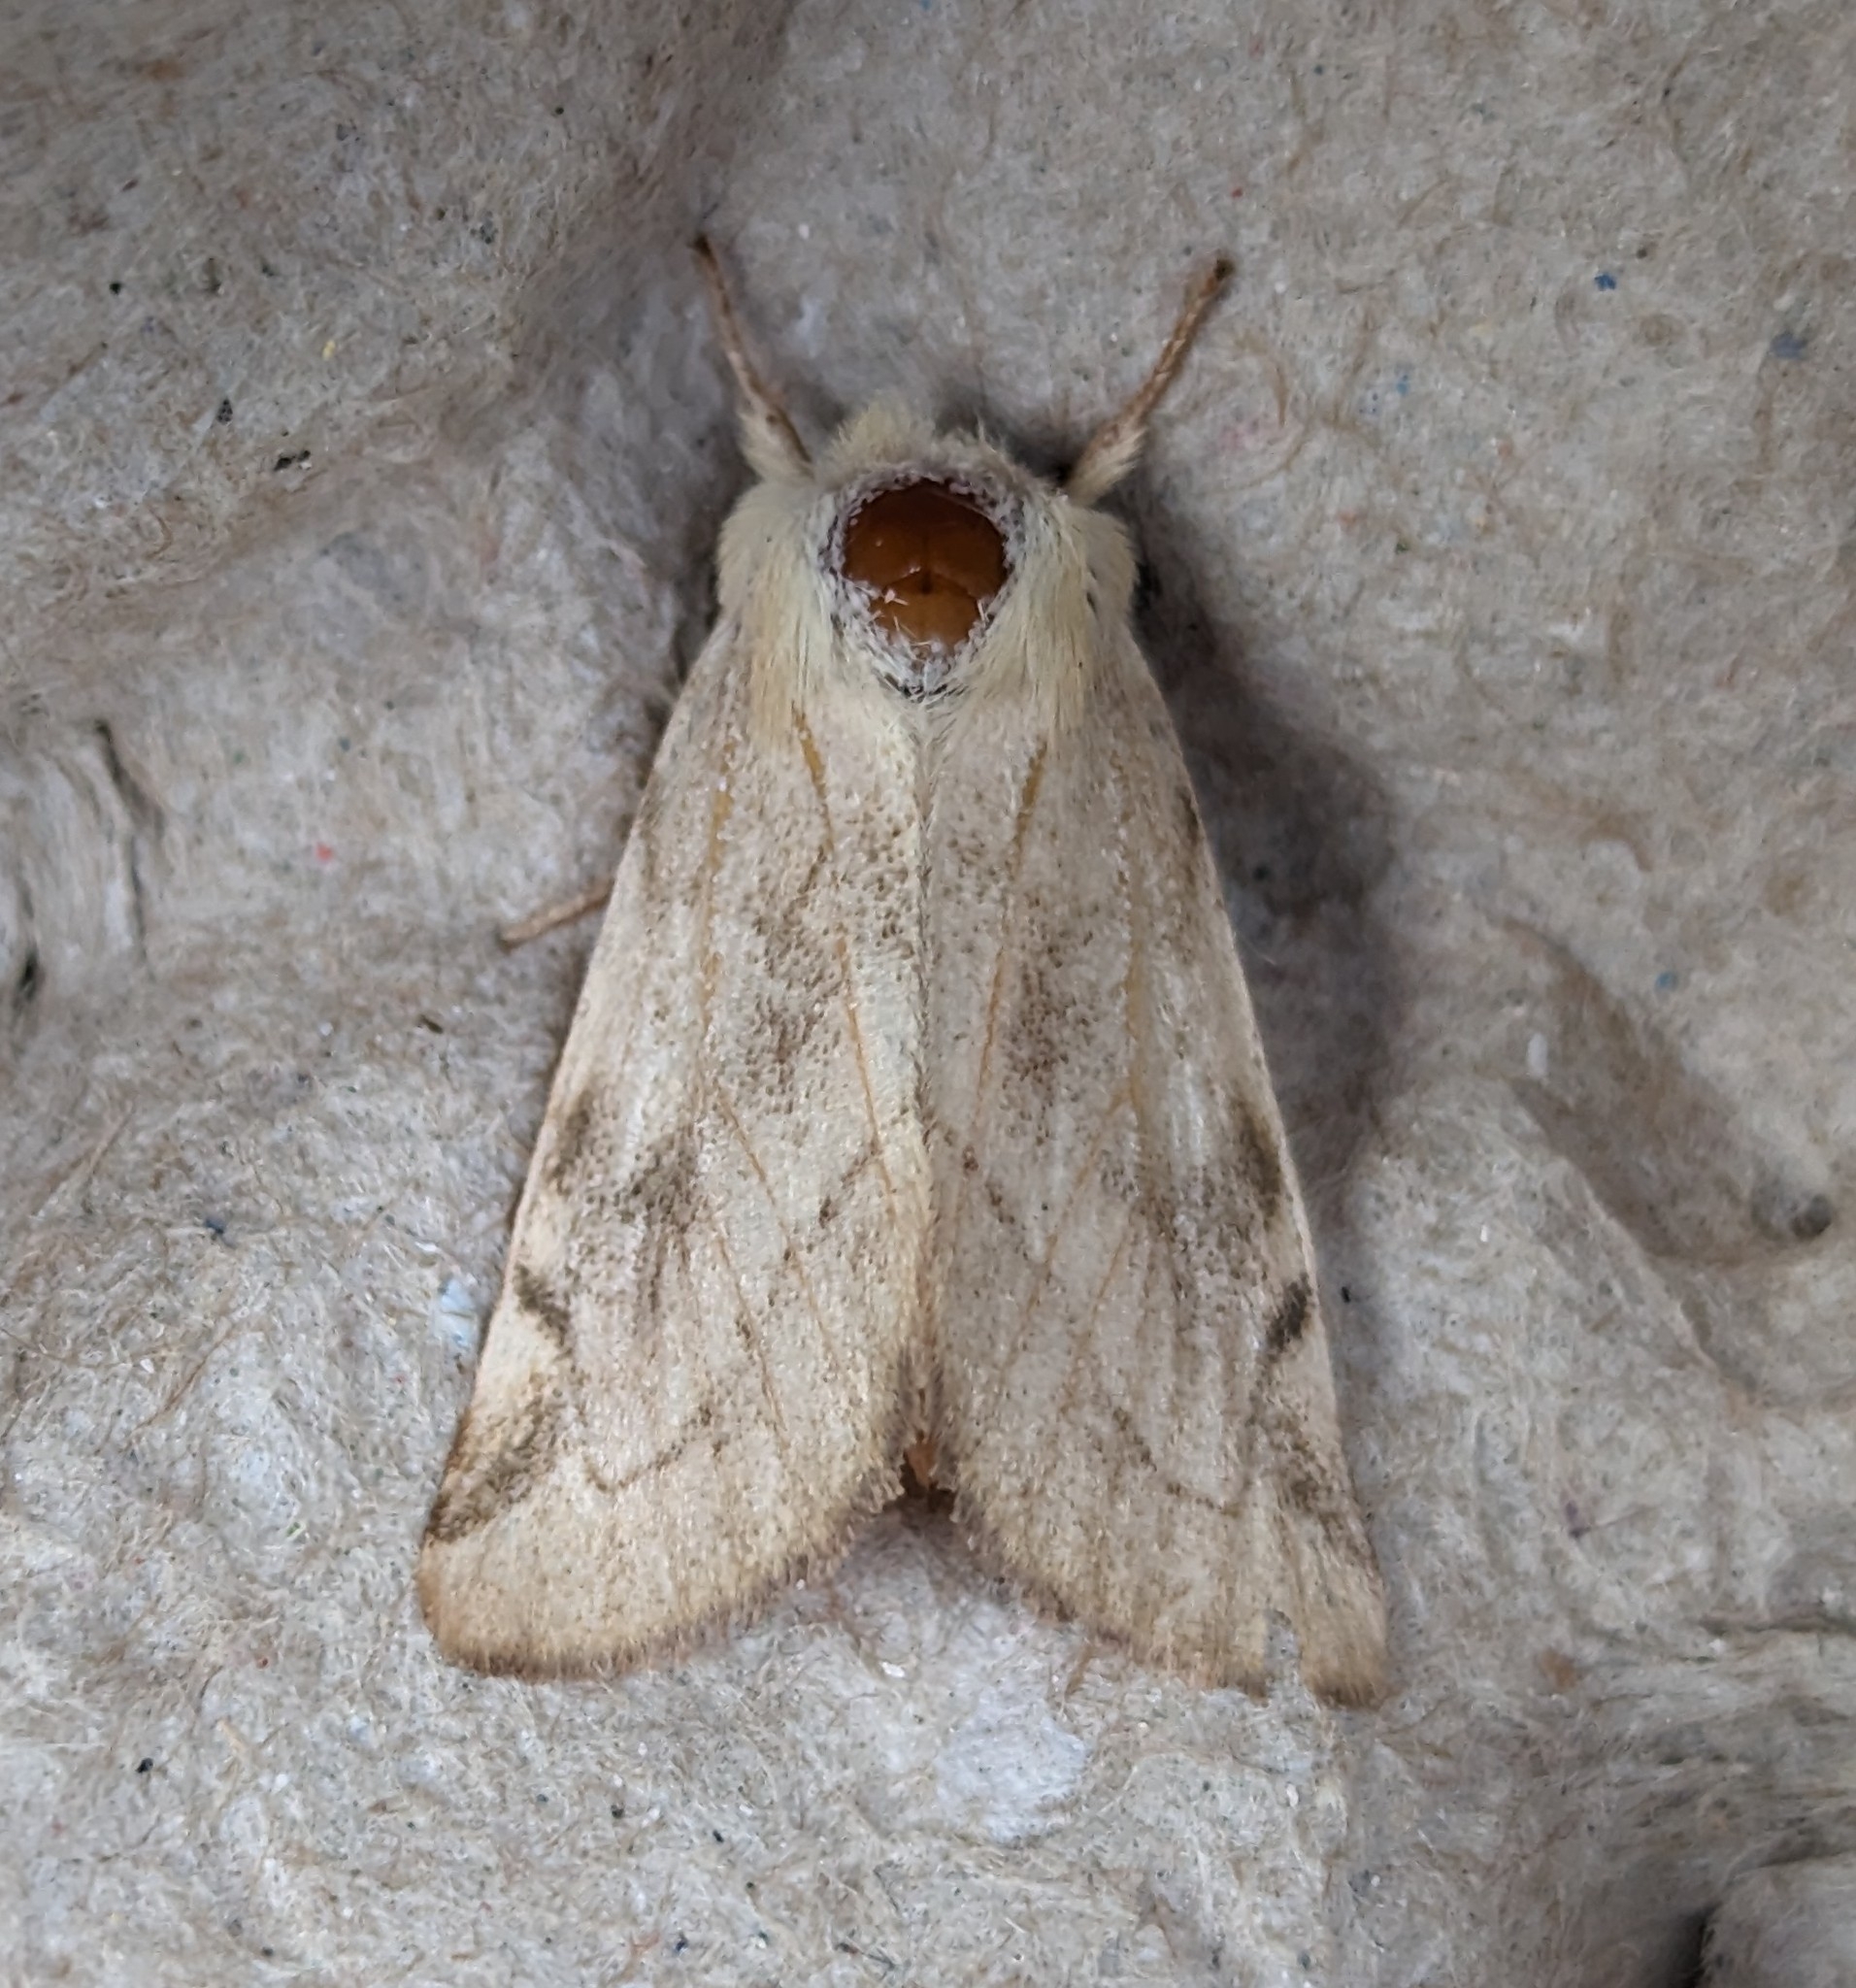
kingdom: Animalia
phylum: Arthropoda
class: Insecta
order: Lepidoptera
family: Noctuidae
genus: Zotheca
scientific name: Zotheca tranquilla
